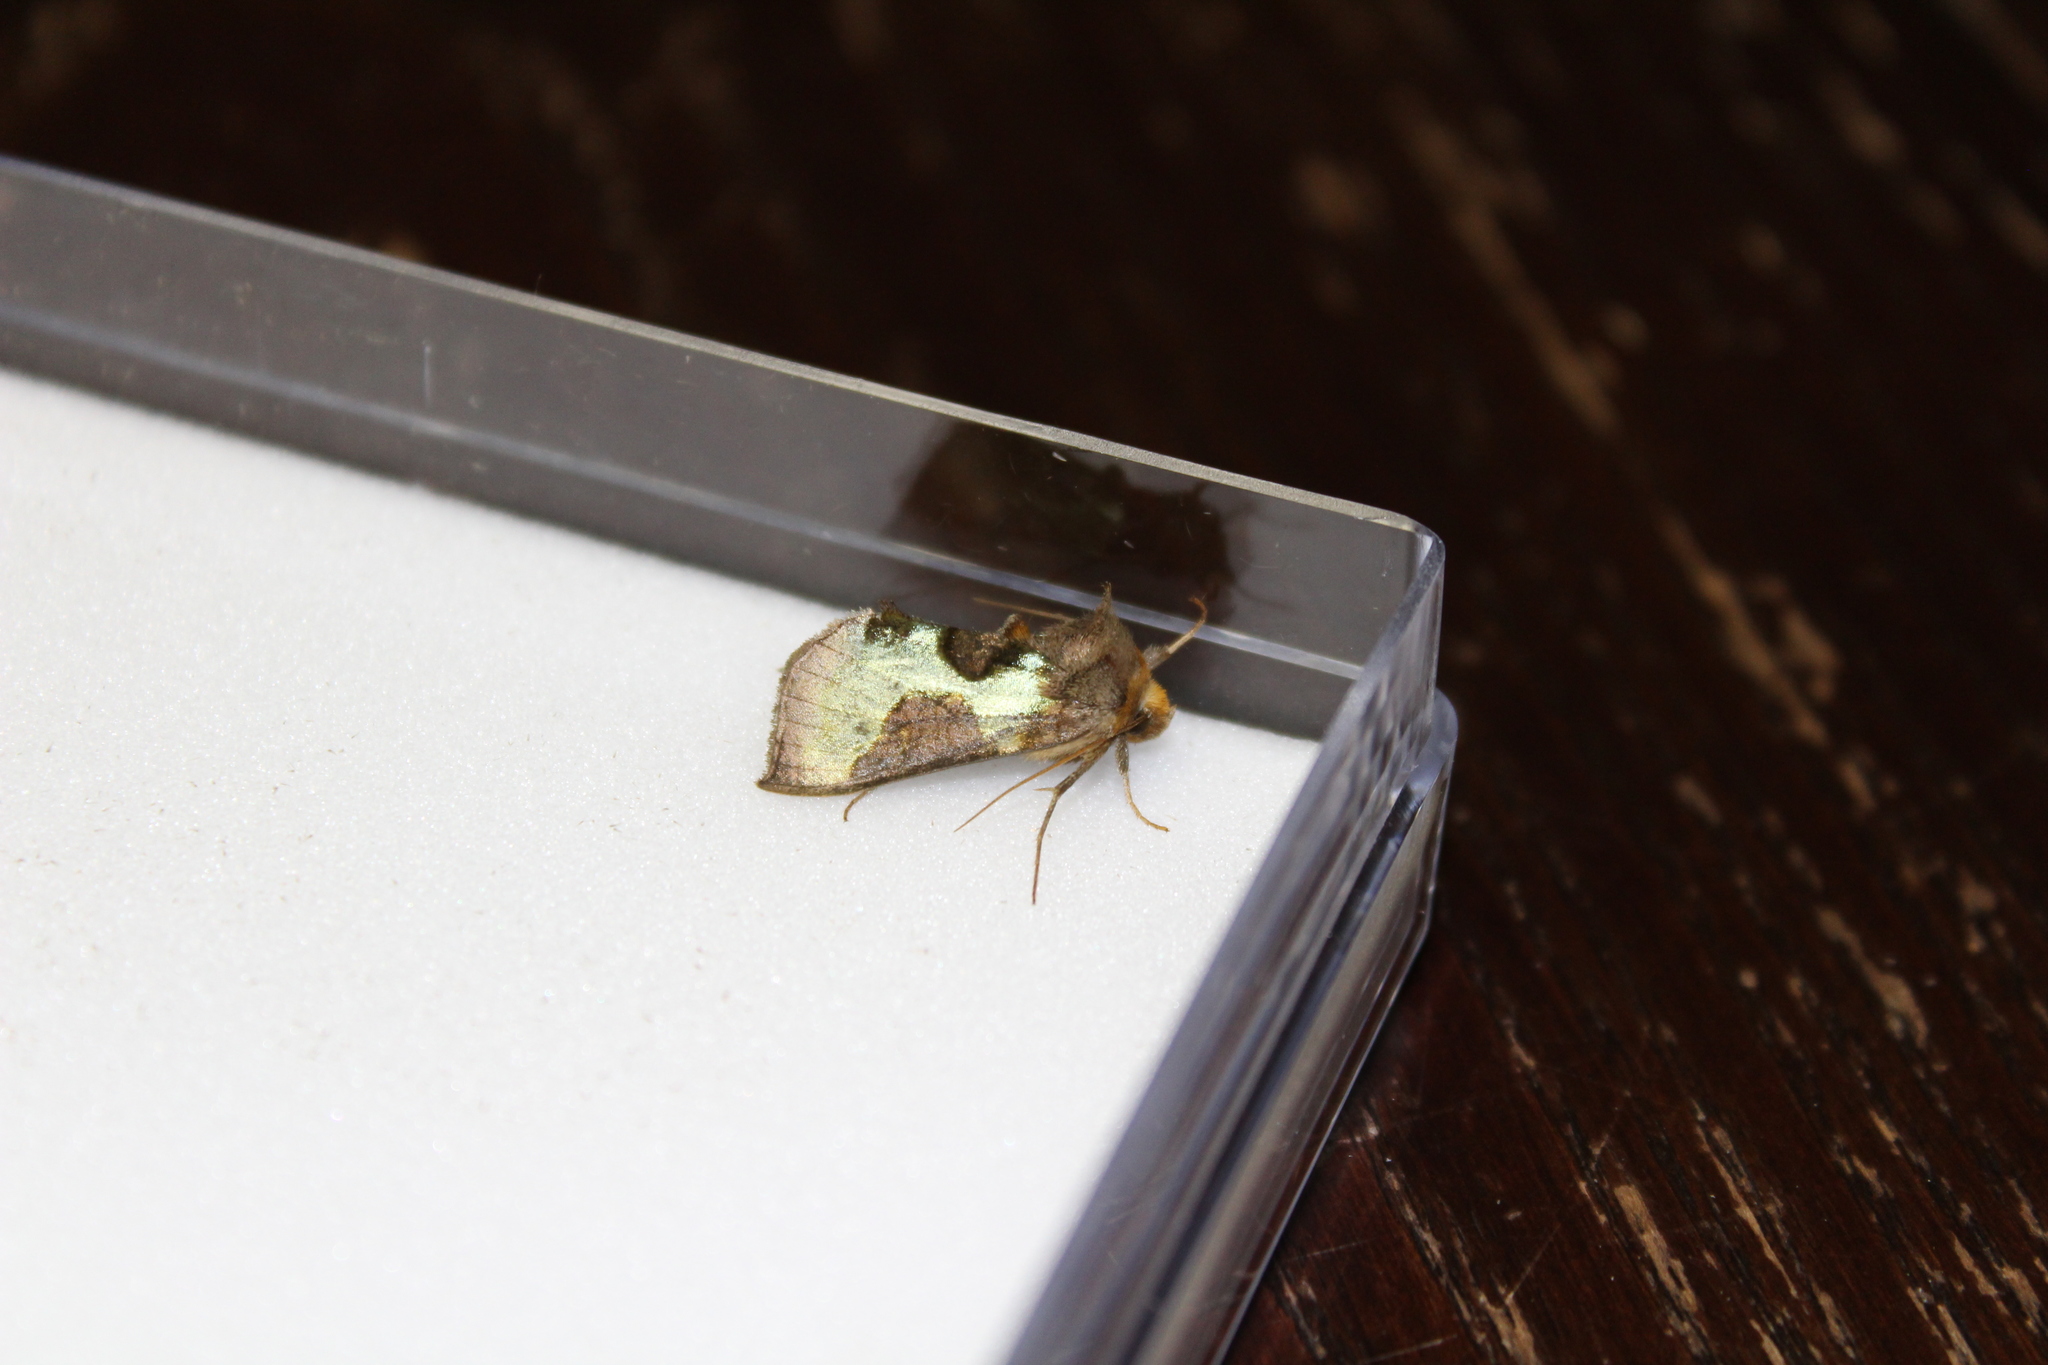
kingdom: Animalia
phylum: Arthropoda
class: Insecta
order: Lepidoptera
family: Noctuidae
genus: Diachrysia
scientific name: Diachrysia chrysitis
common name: Burnished brass
